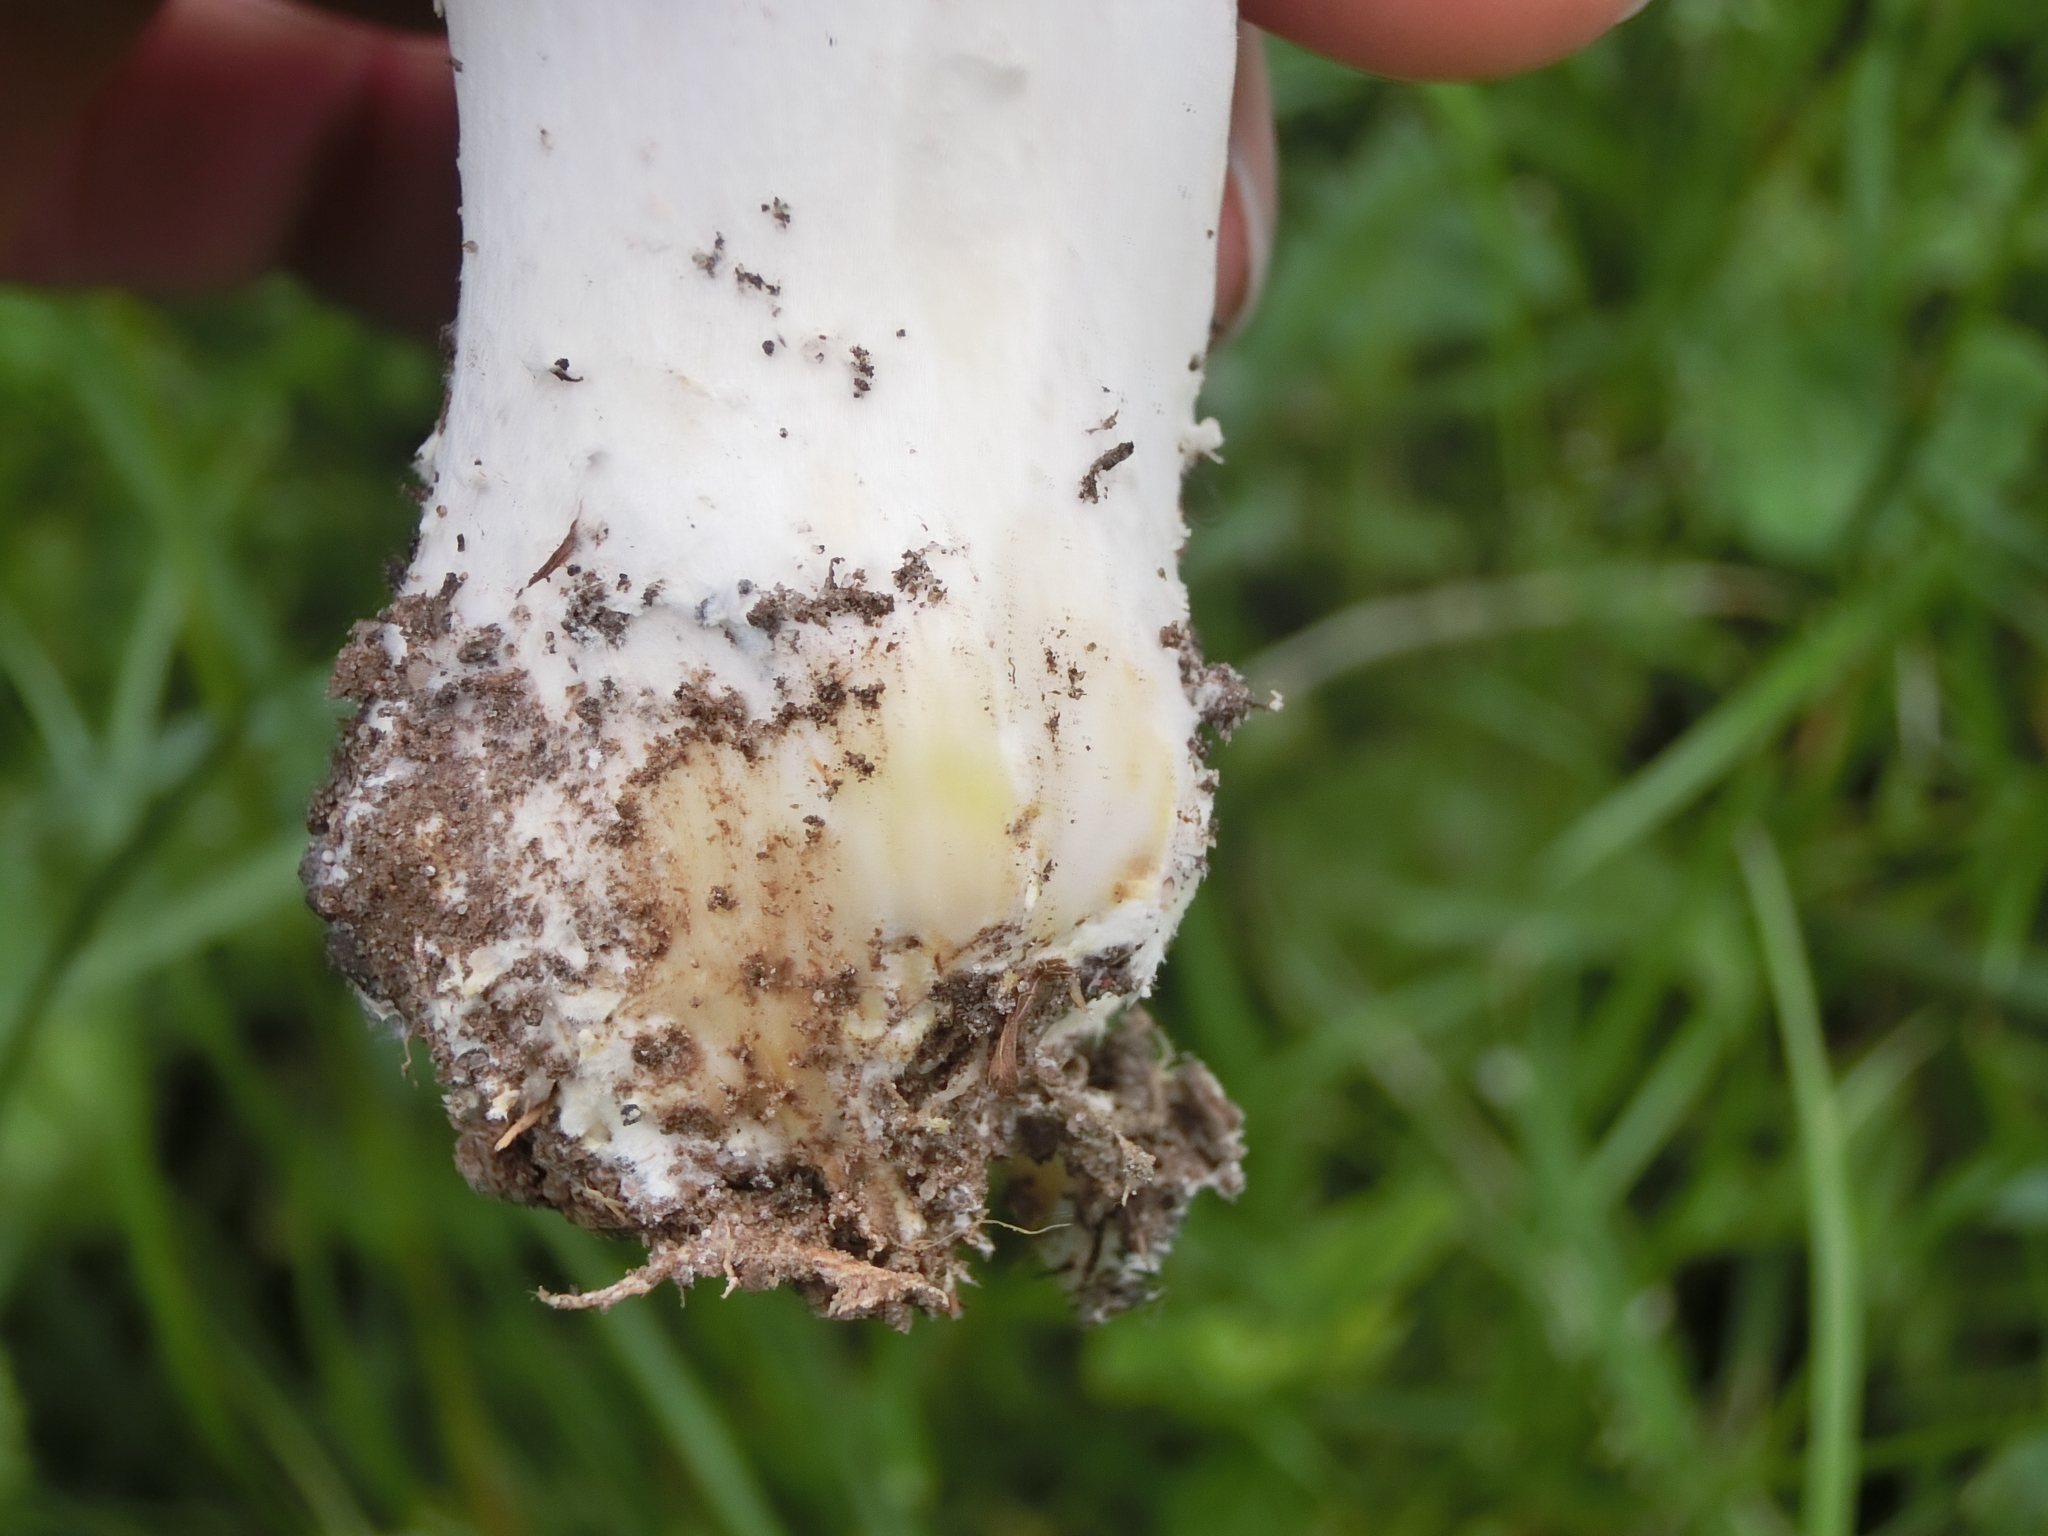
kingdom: Fungi
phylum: Basidiomycota
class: Agaricomycetes
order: Agaricales
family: Agaricaceae
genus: Agaricus
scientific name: Agaricus xanthodermus
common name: Yellow stainer
